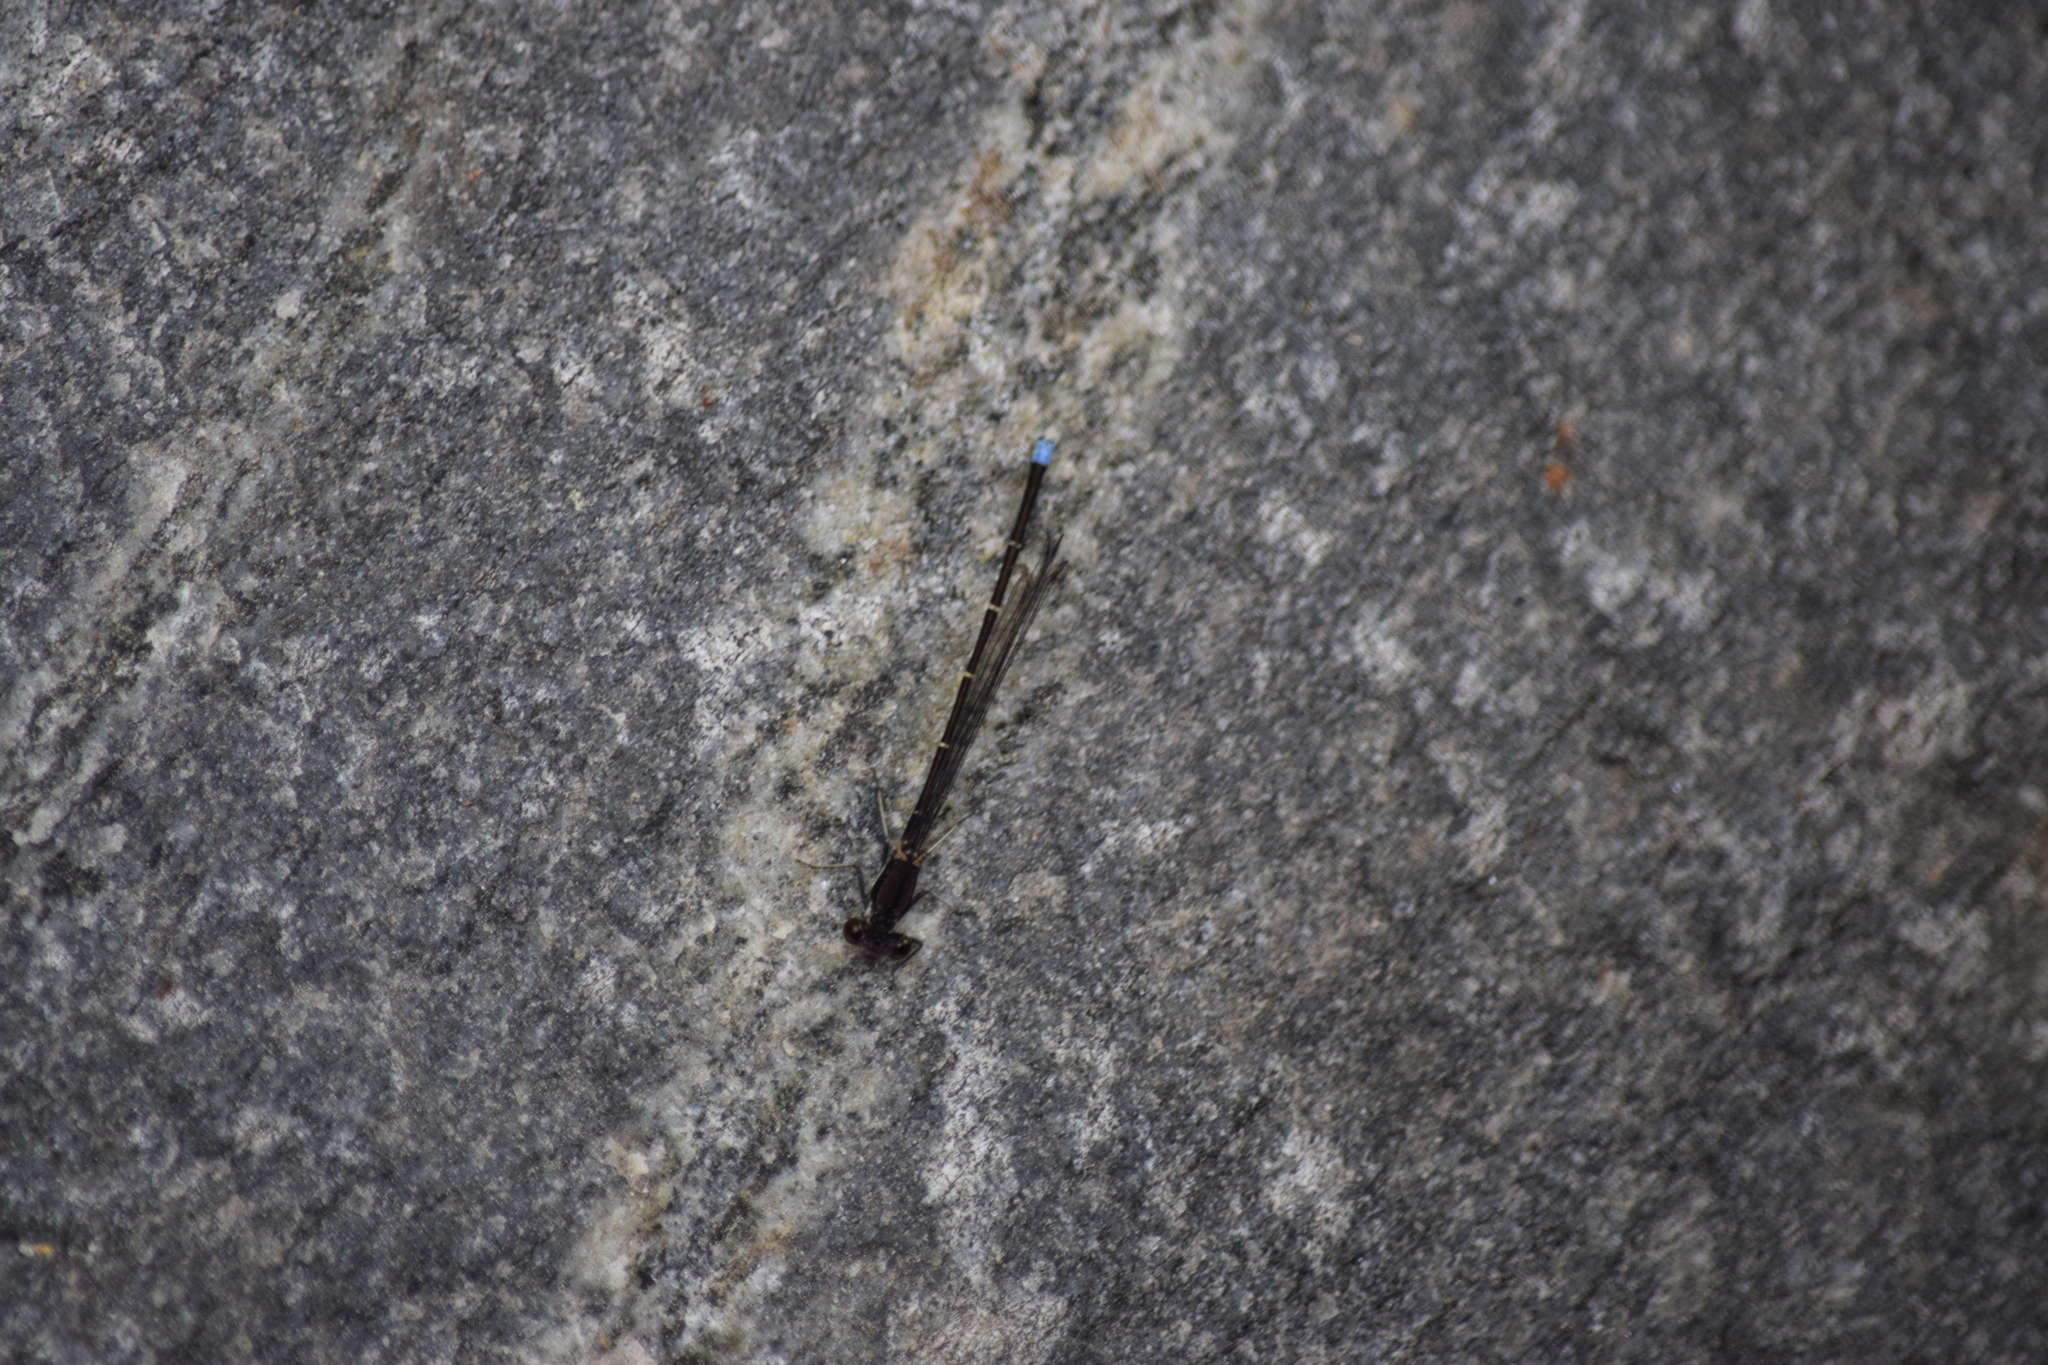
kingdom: Animalia
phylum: Arthropoda
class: Insecta
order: Odonata
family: Coenagrionidae
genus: Argia
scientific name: Argia tibialis
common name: Blue-tipped dancer
